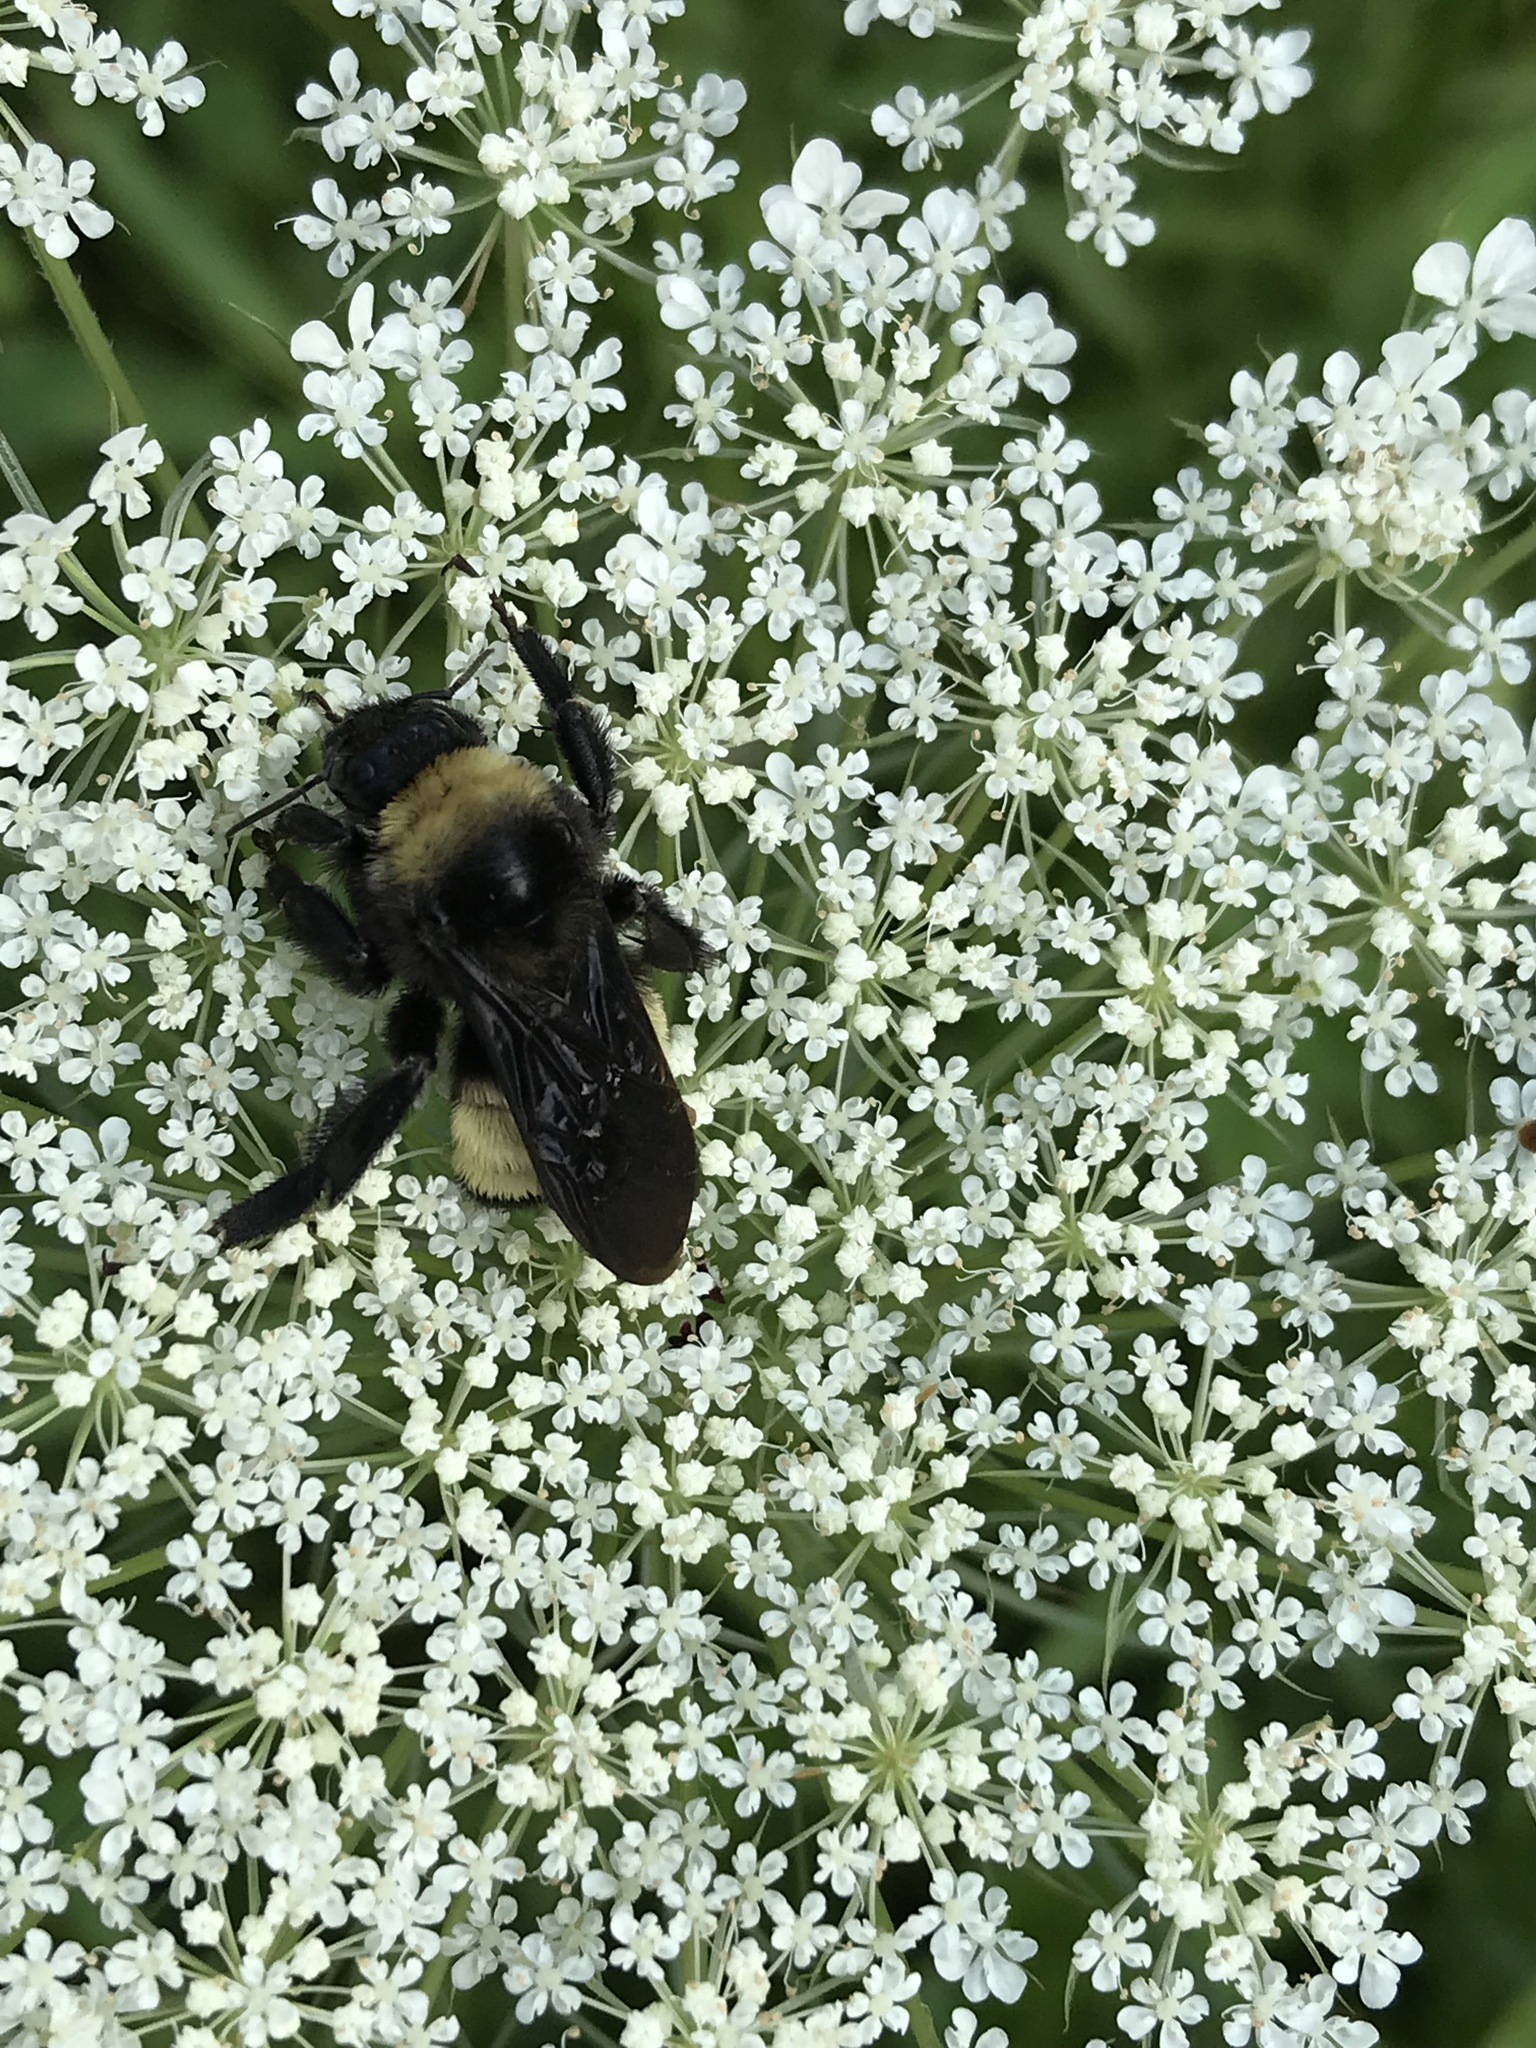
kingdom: Animalia
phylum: Arthropoda
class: Insecta
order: Hymenoptera
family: Apidae
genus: Bombus
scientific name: Bombus pensylvanicus
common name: Bumble bee
